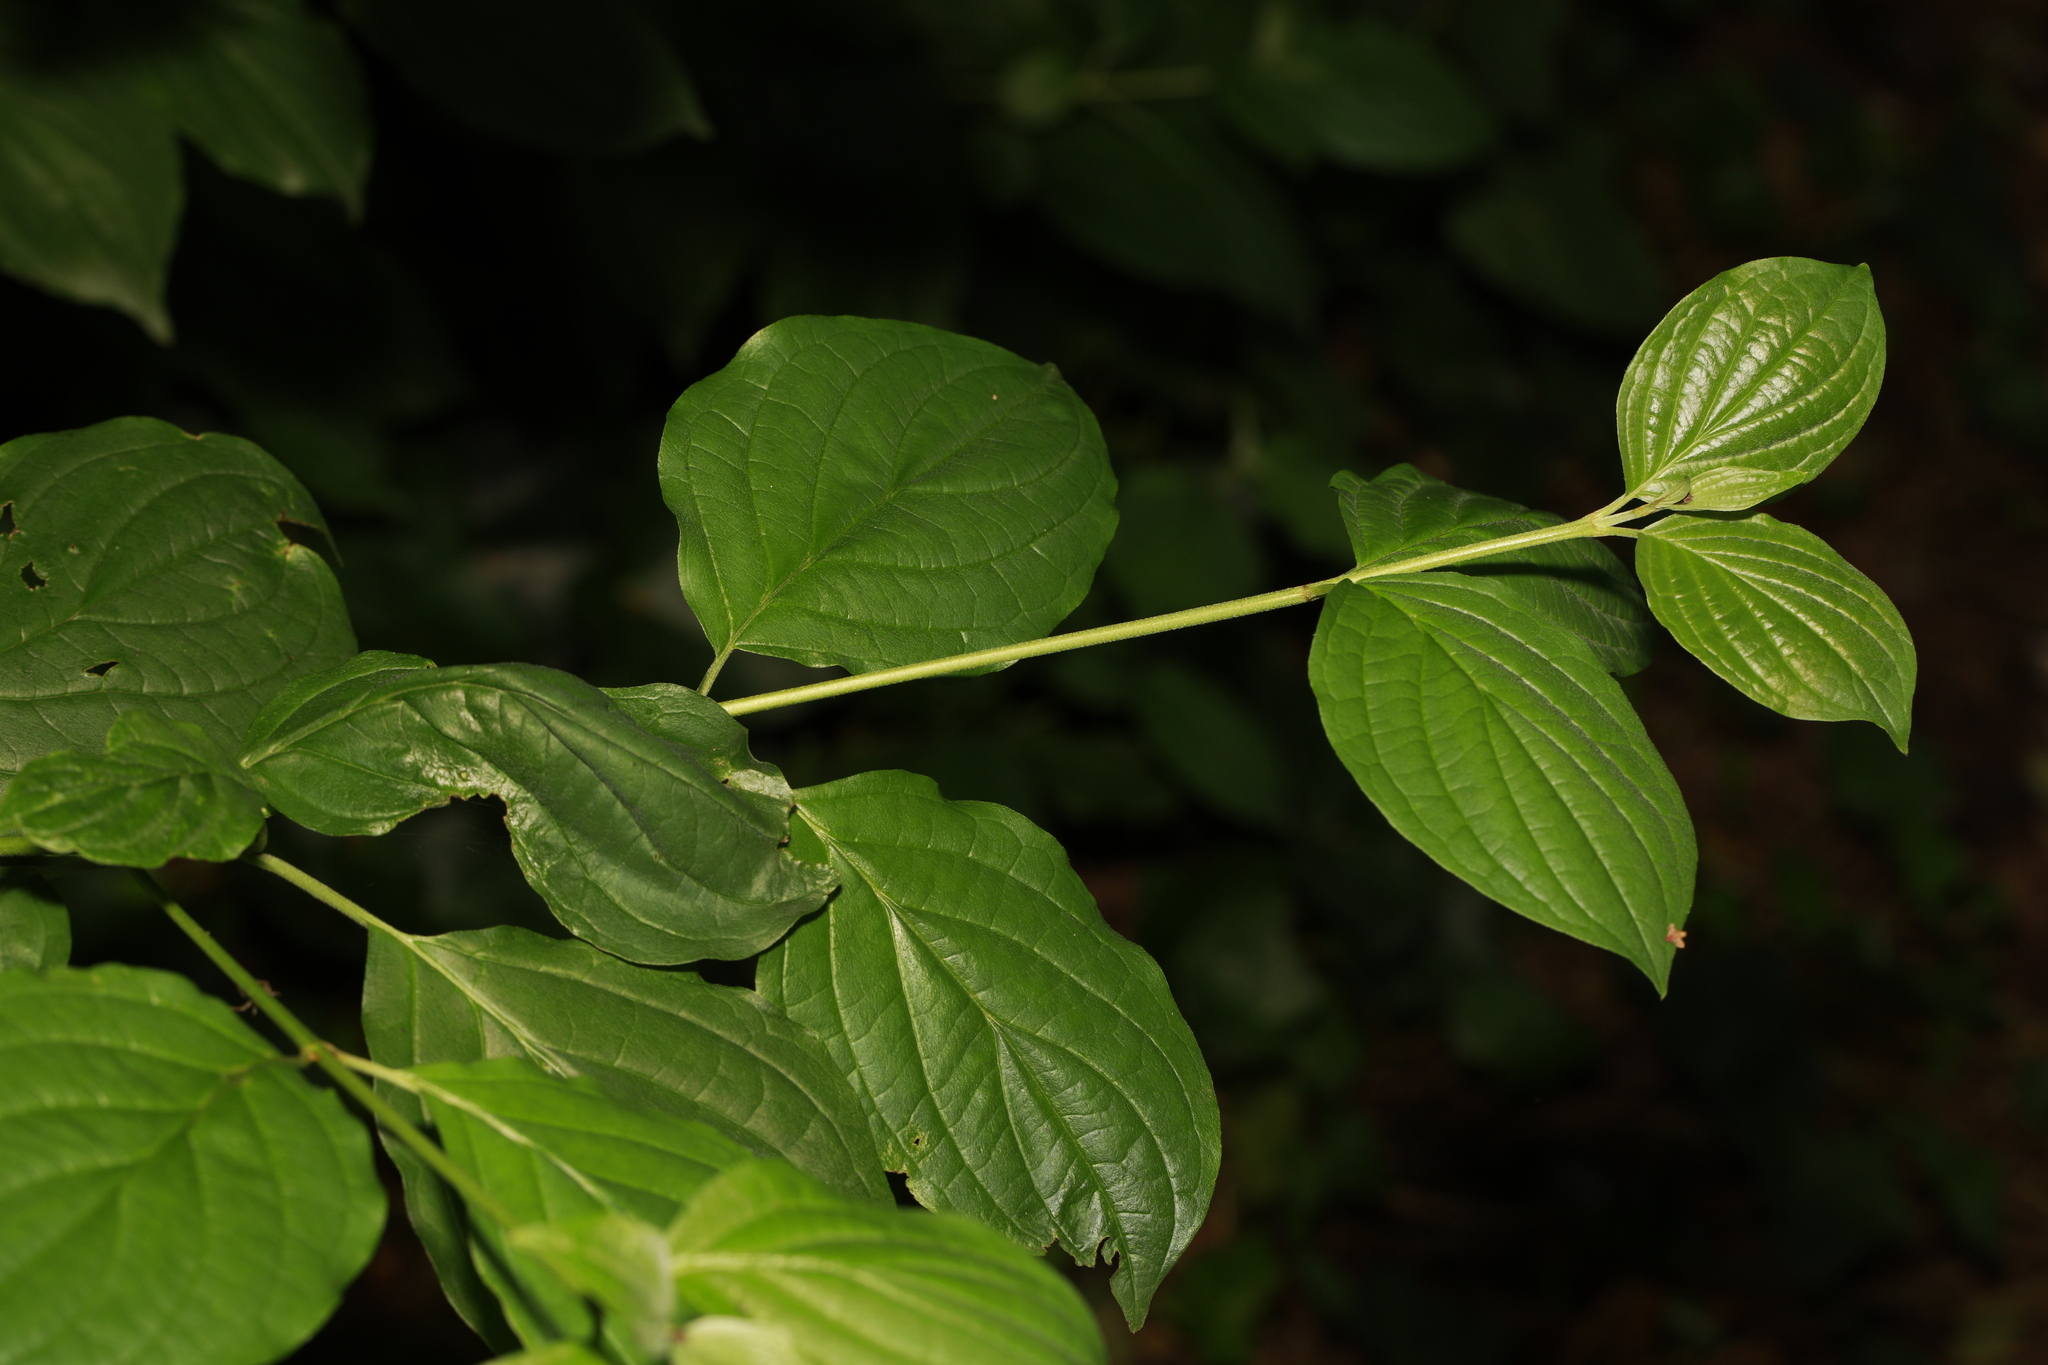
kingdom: Plantae
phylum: Tracheophyta
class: Magnoliopsida
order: Cornales
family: Cornaceae
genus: Cornus
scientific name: Cornus sanguinea
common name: Dogwood
